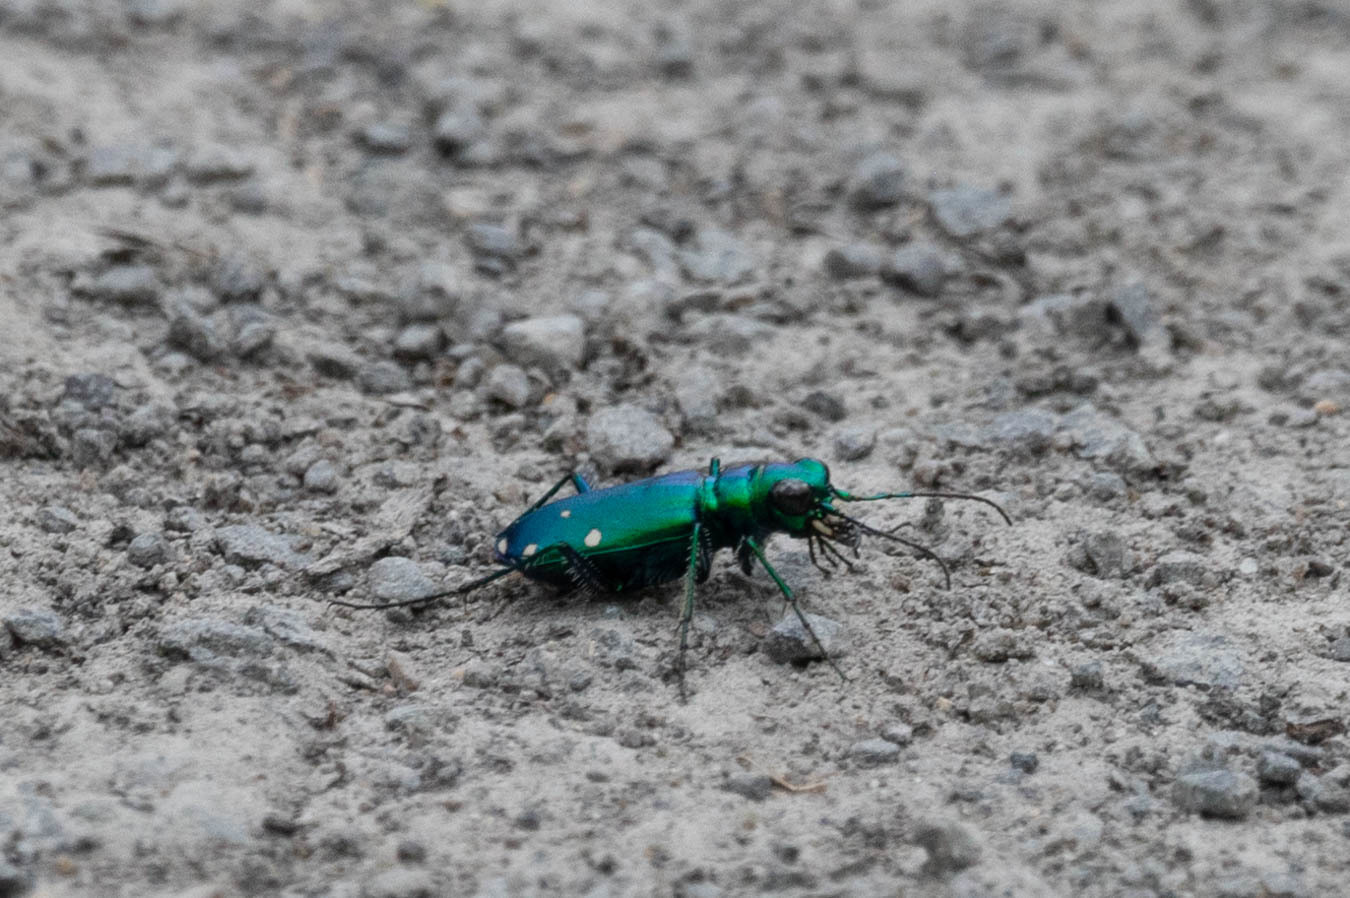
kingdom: Animalia
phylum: Arthropoda
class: Insecta
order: Coleoptera
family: Carabidae
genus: Cicindela
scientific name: Cicindela sexguttata
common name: Six-spotted tiger beetle
